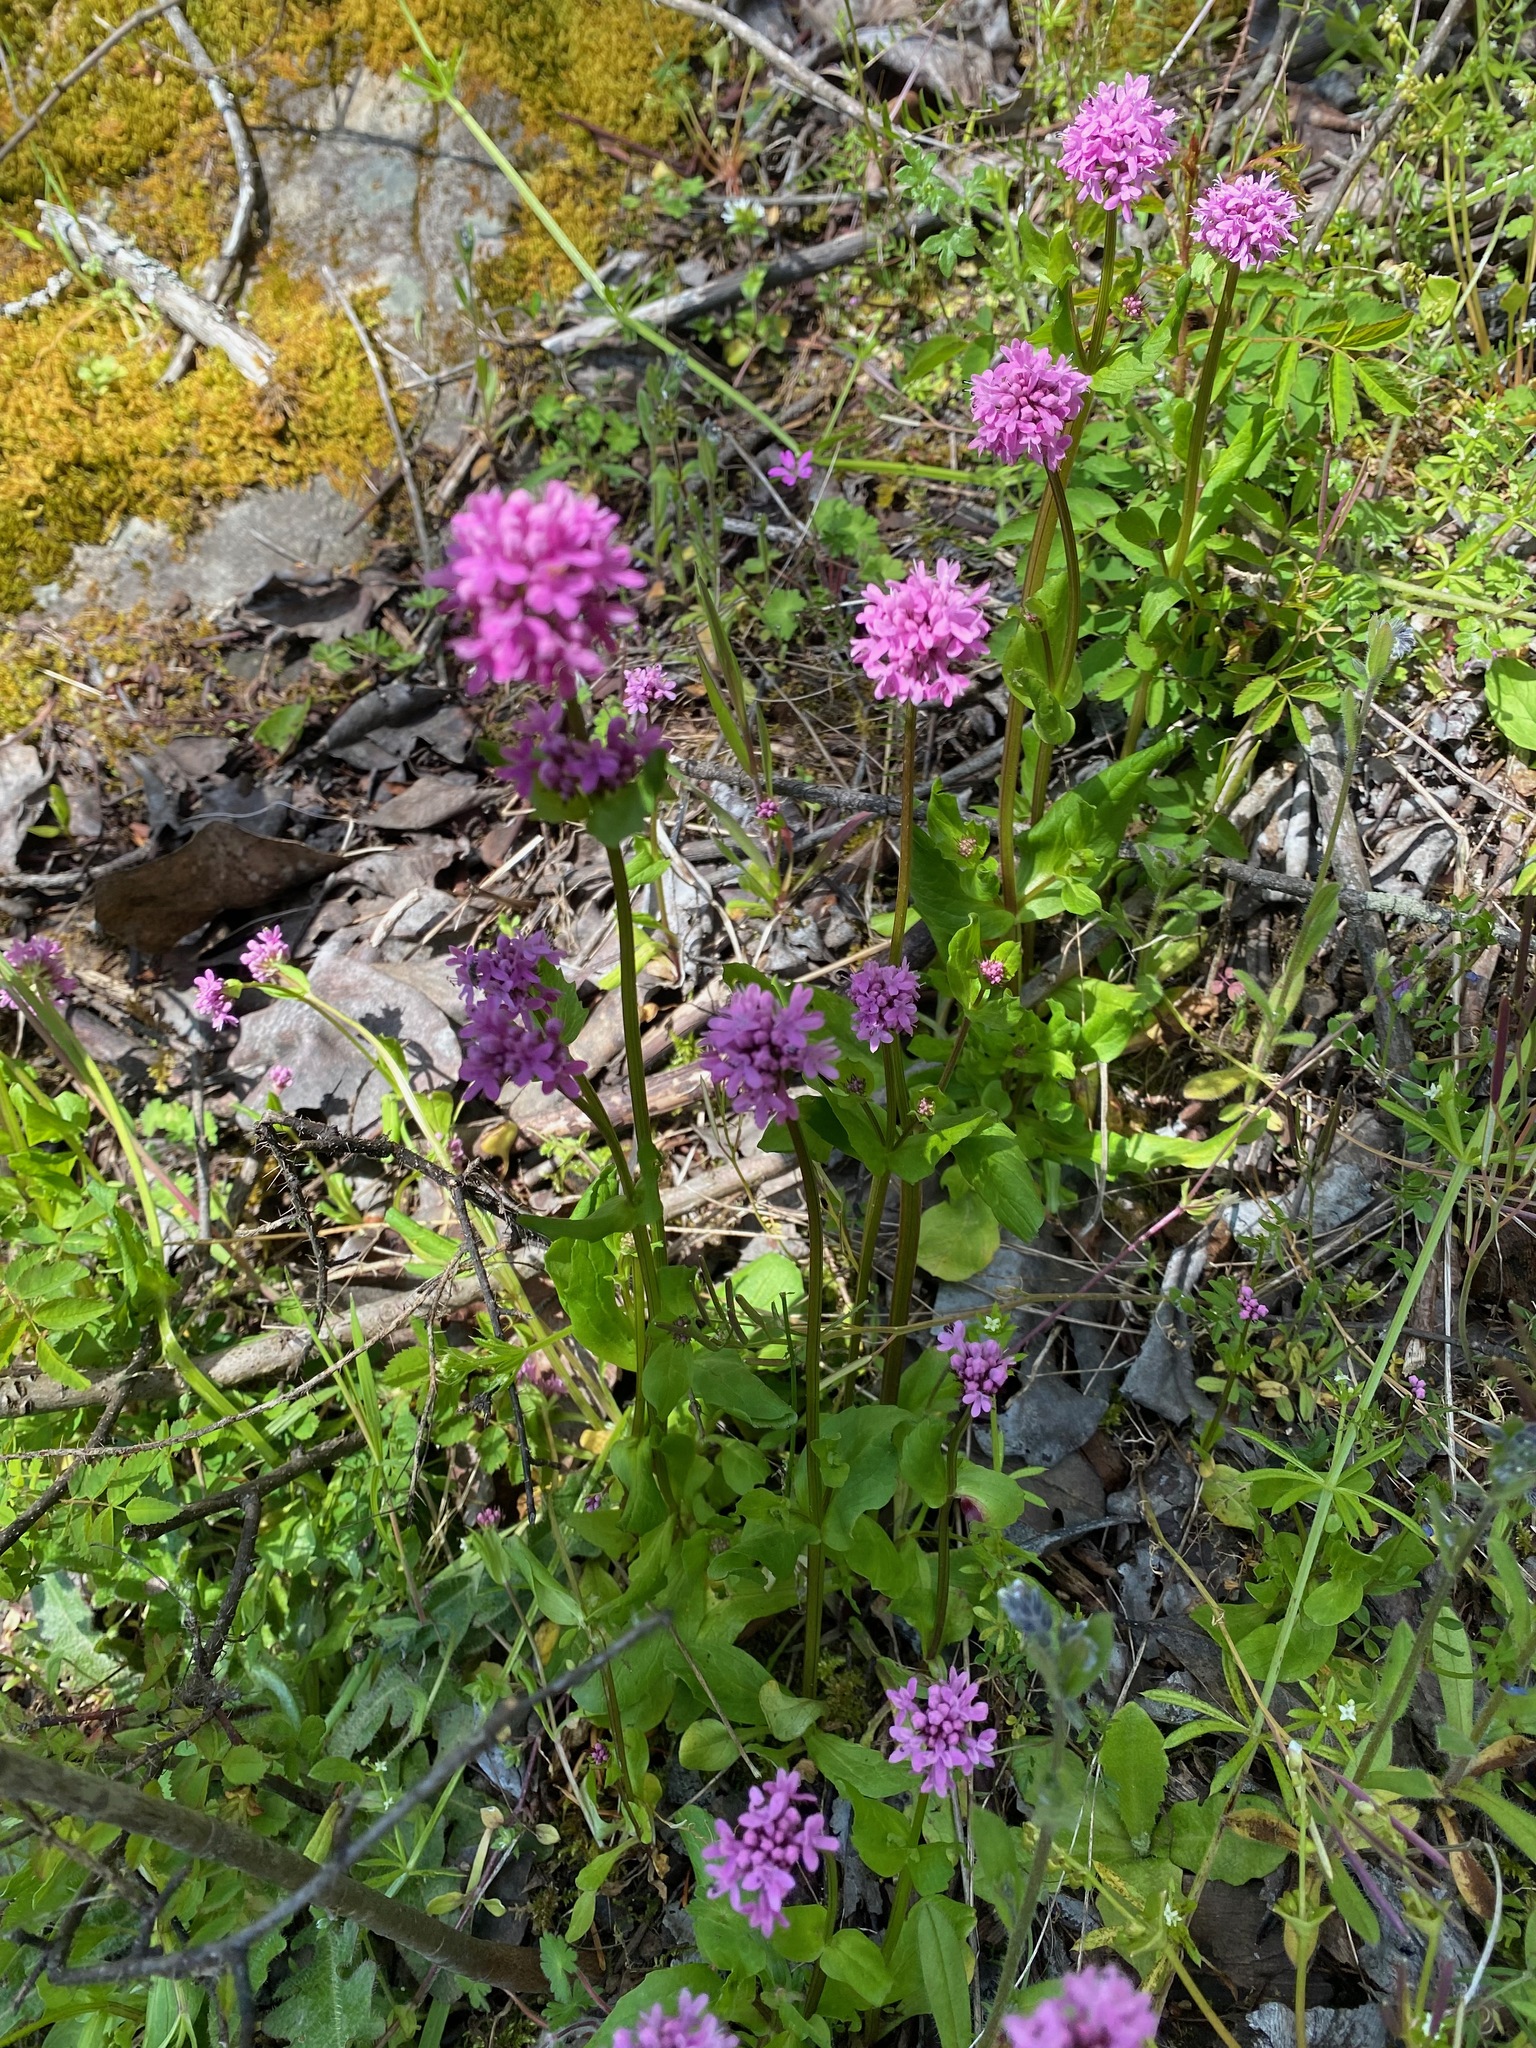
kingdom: Plantae
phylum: Tracheophyta
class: Magnoliopsida
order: Dipsacales
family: Caprifoliaceae
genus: Plectritis
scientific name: Plectritis congesta
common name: Pink plectritis
